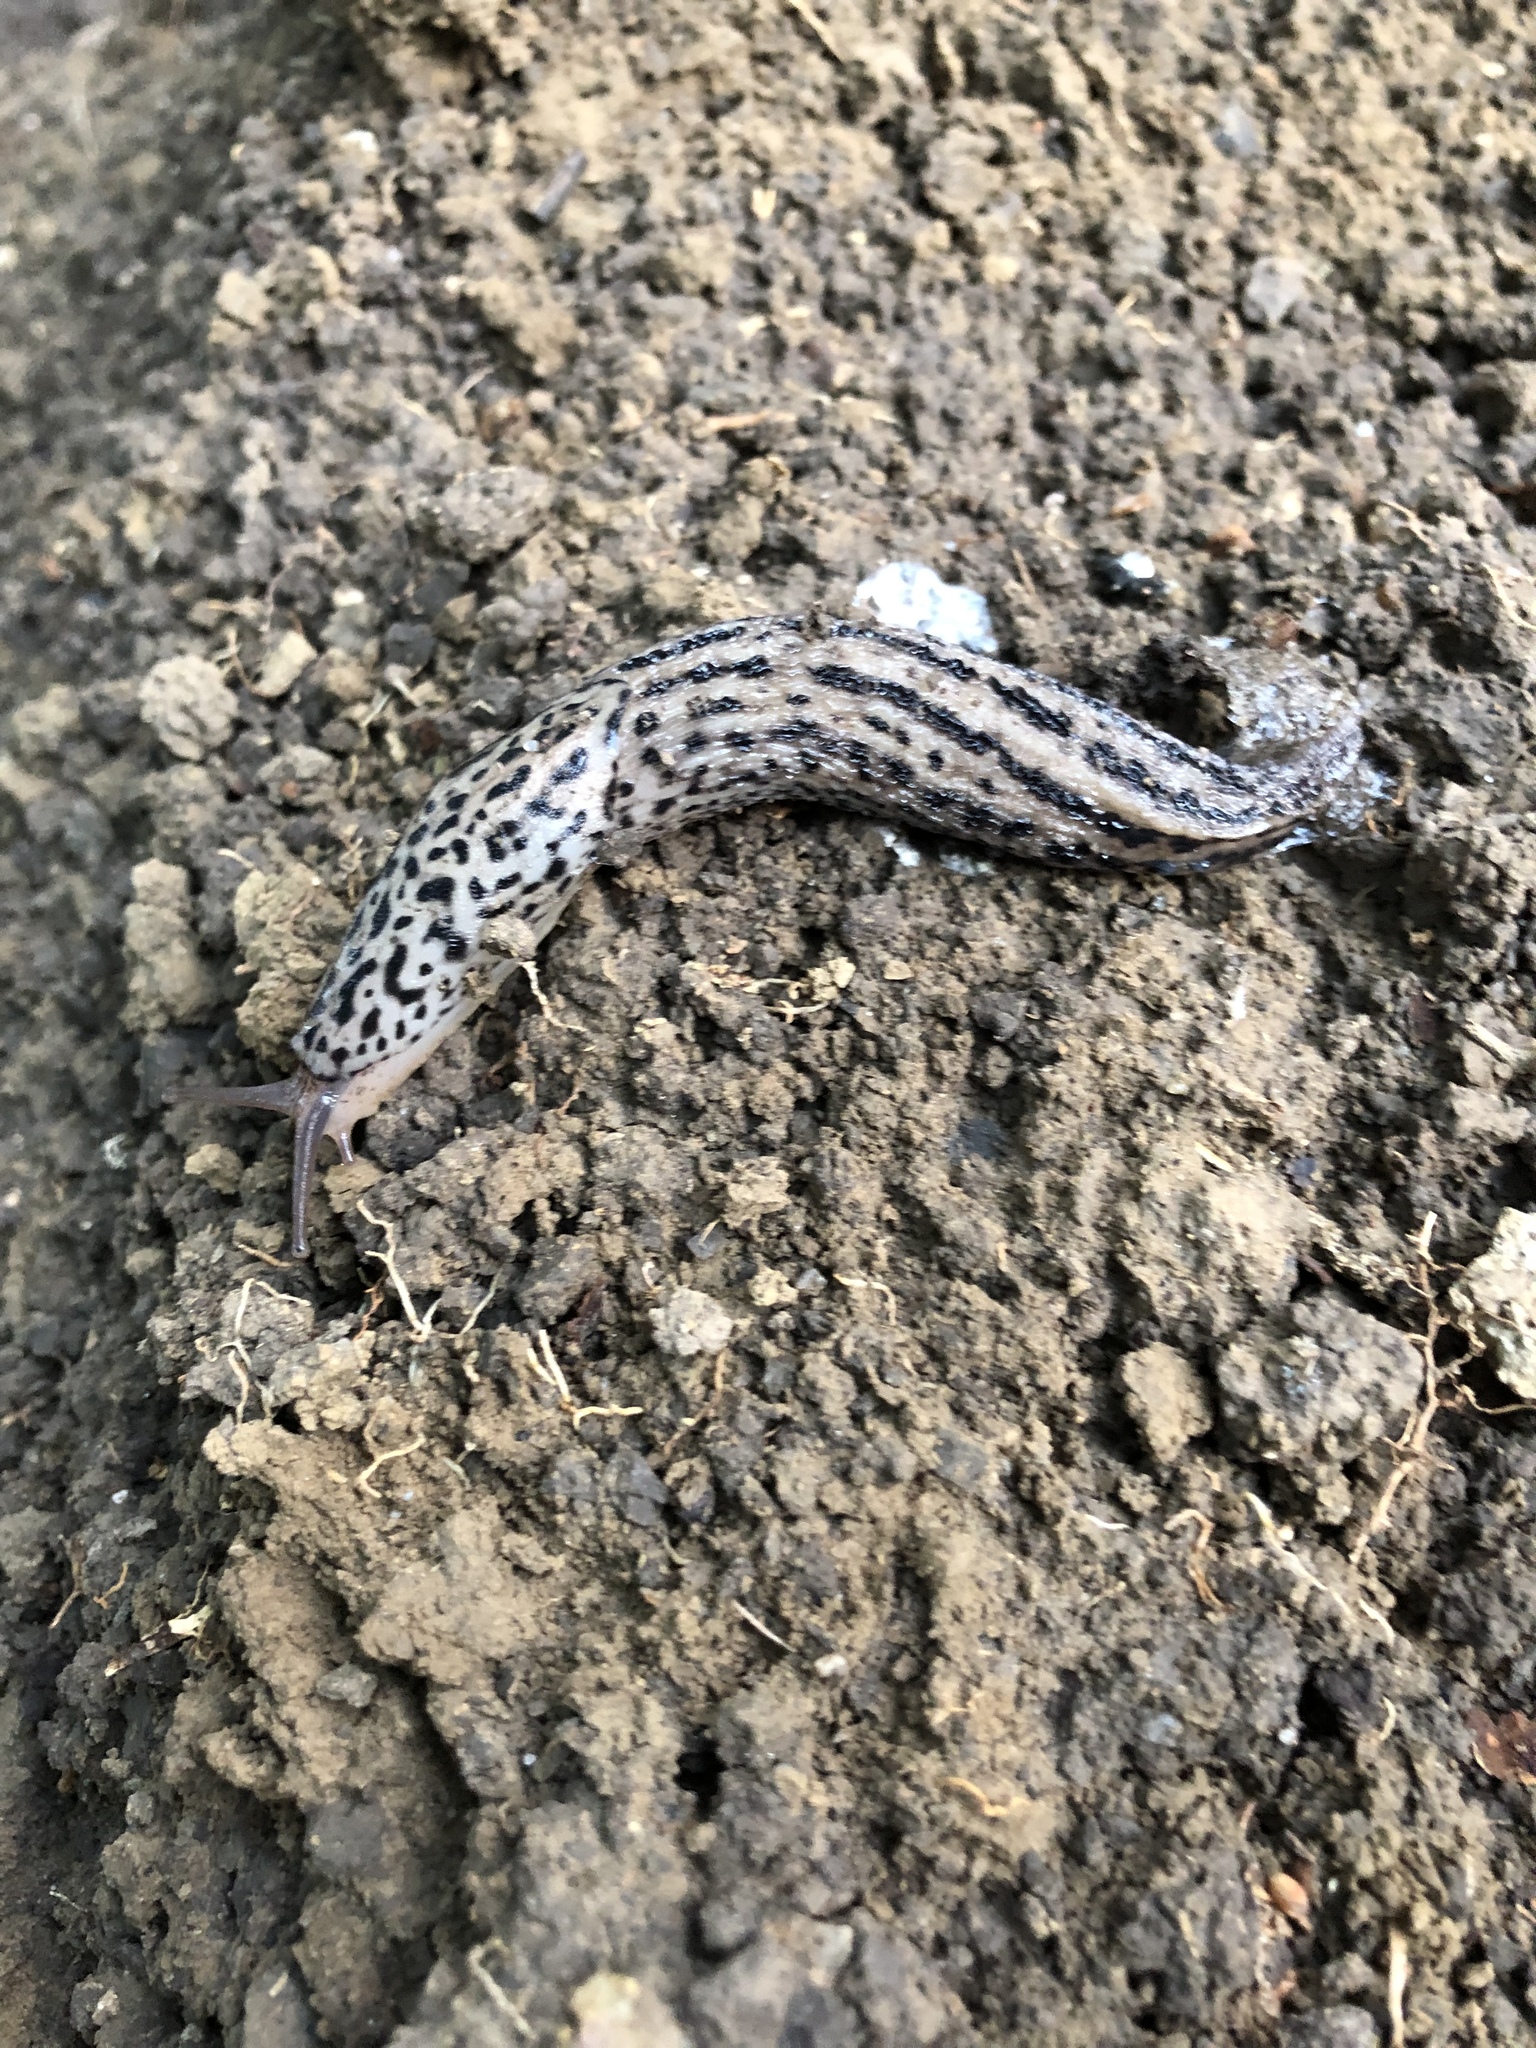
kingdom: Animalia
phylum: Mollusca
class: Gastropoda
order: Stylommatophora
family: Limacidae
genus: Limax
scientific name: Limax maximus
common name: Great grey slug
